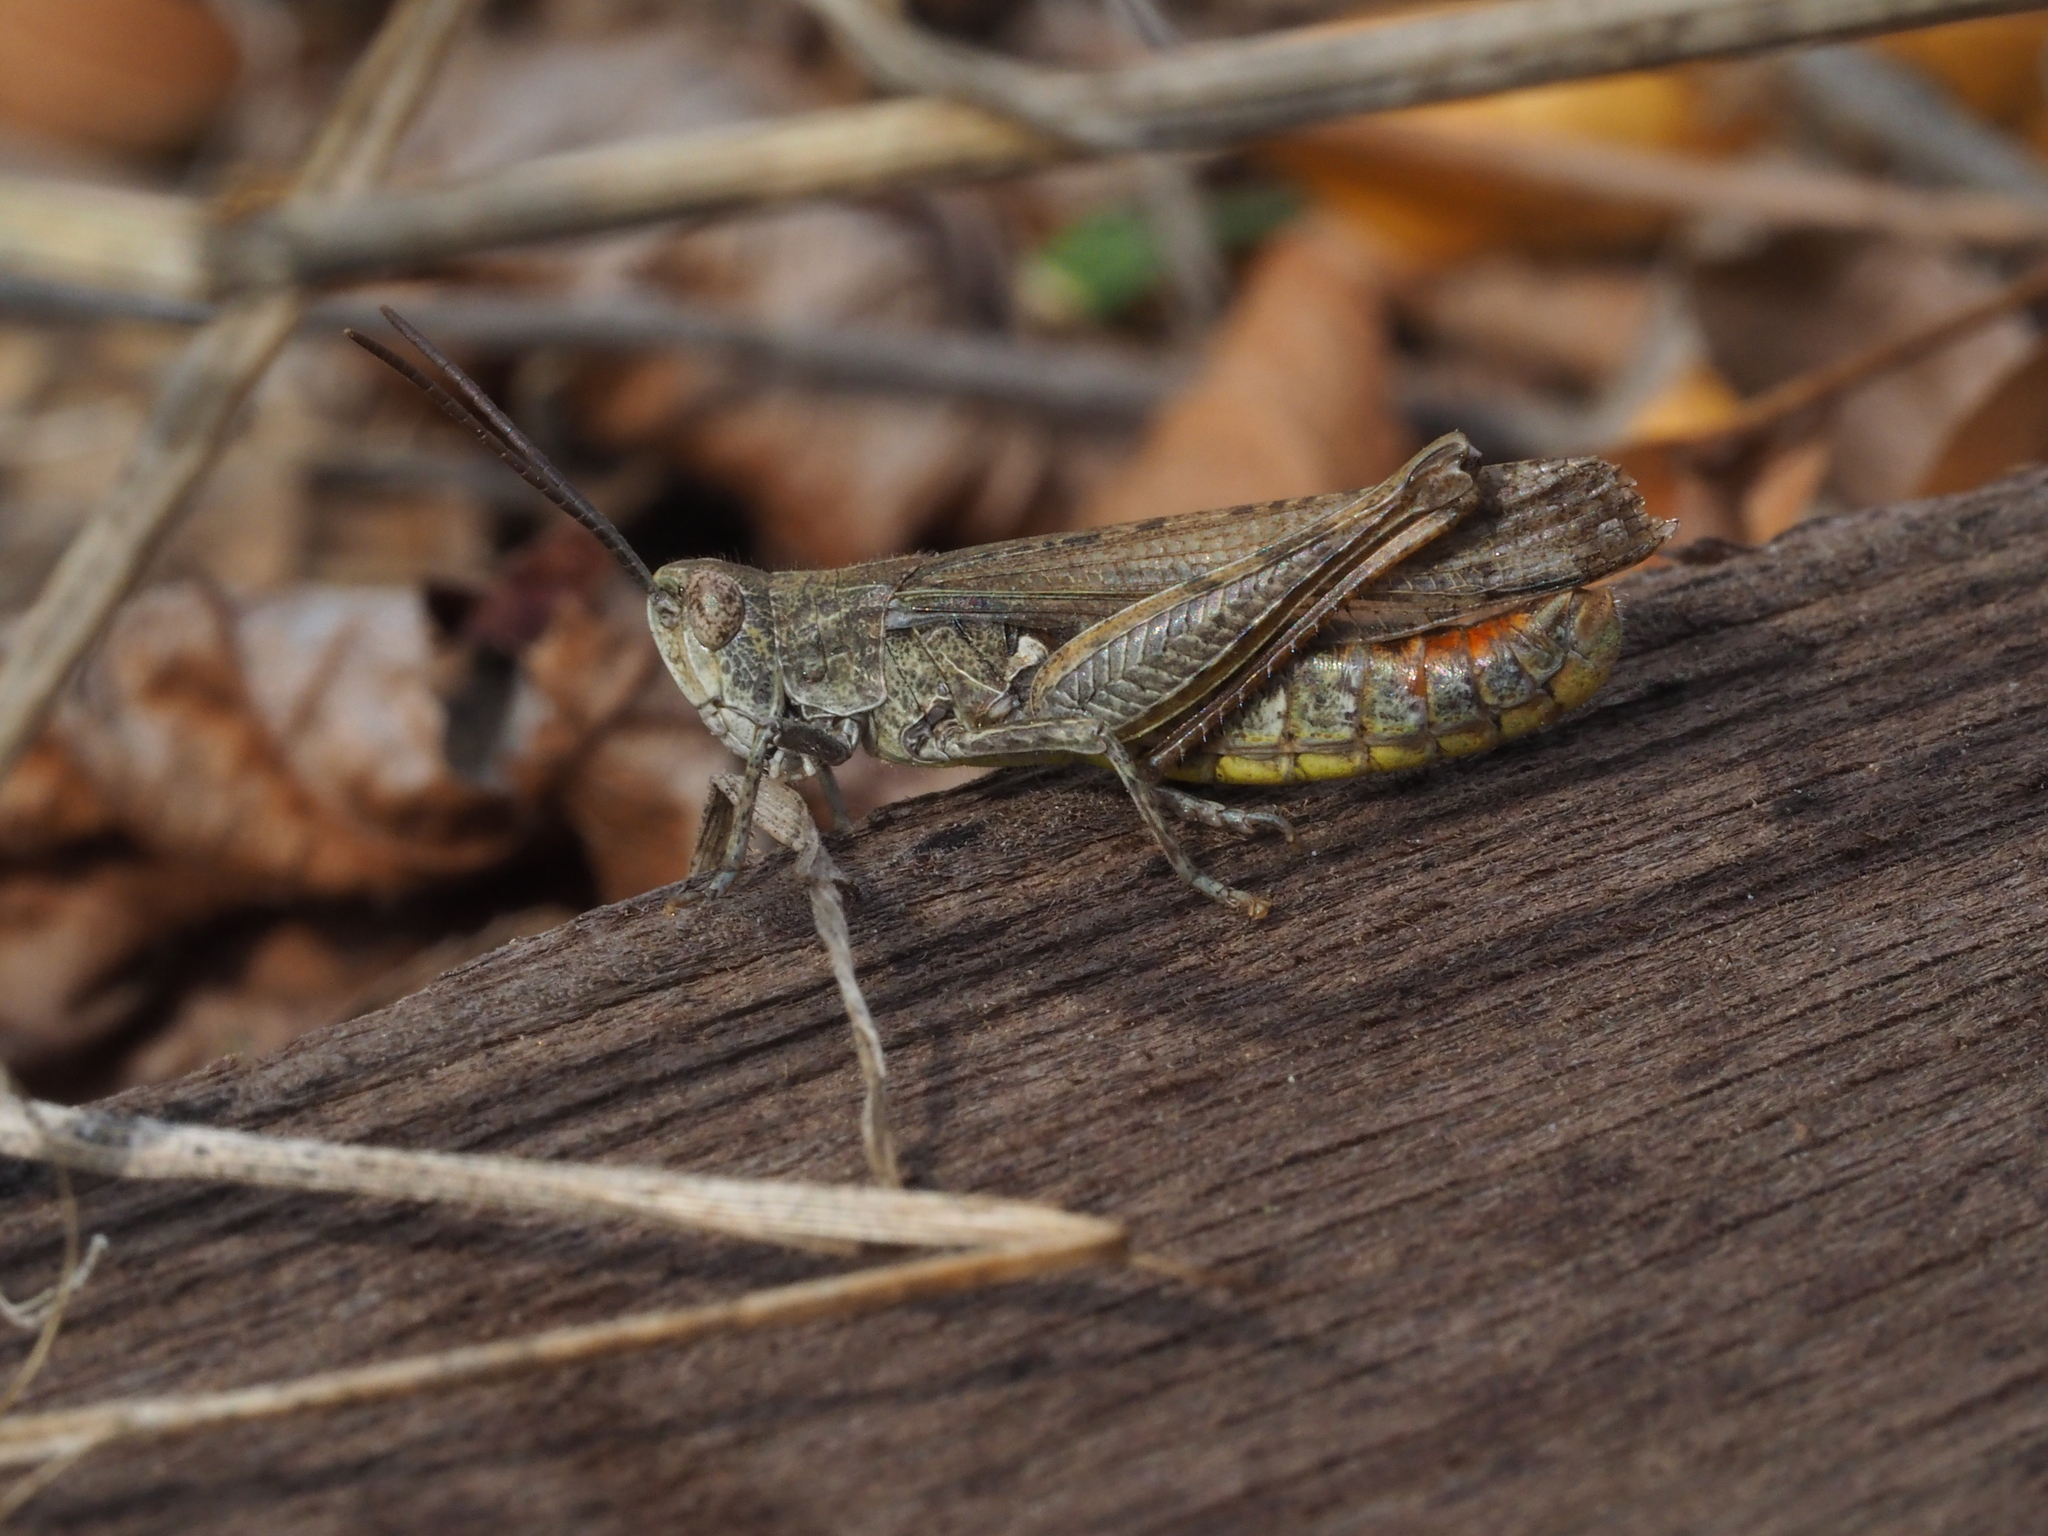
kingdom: Animalia
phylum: Arthropoda
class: Insecta
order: Orthoptera
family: Acrididae
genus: Chorthippus
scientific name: Chorthippus brunneus
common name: Field grasshopper
